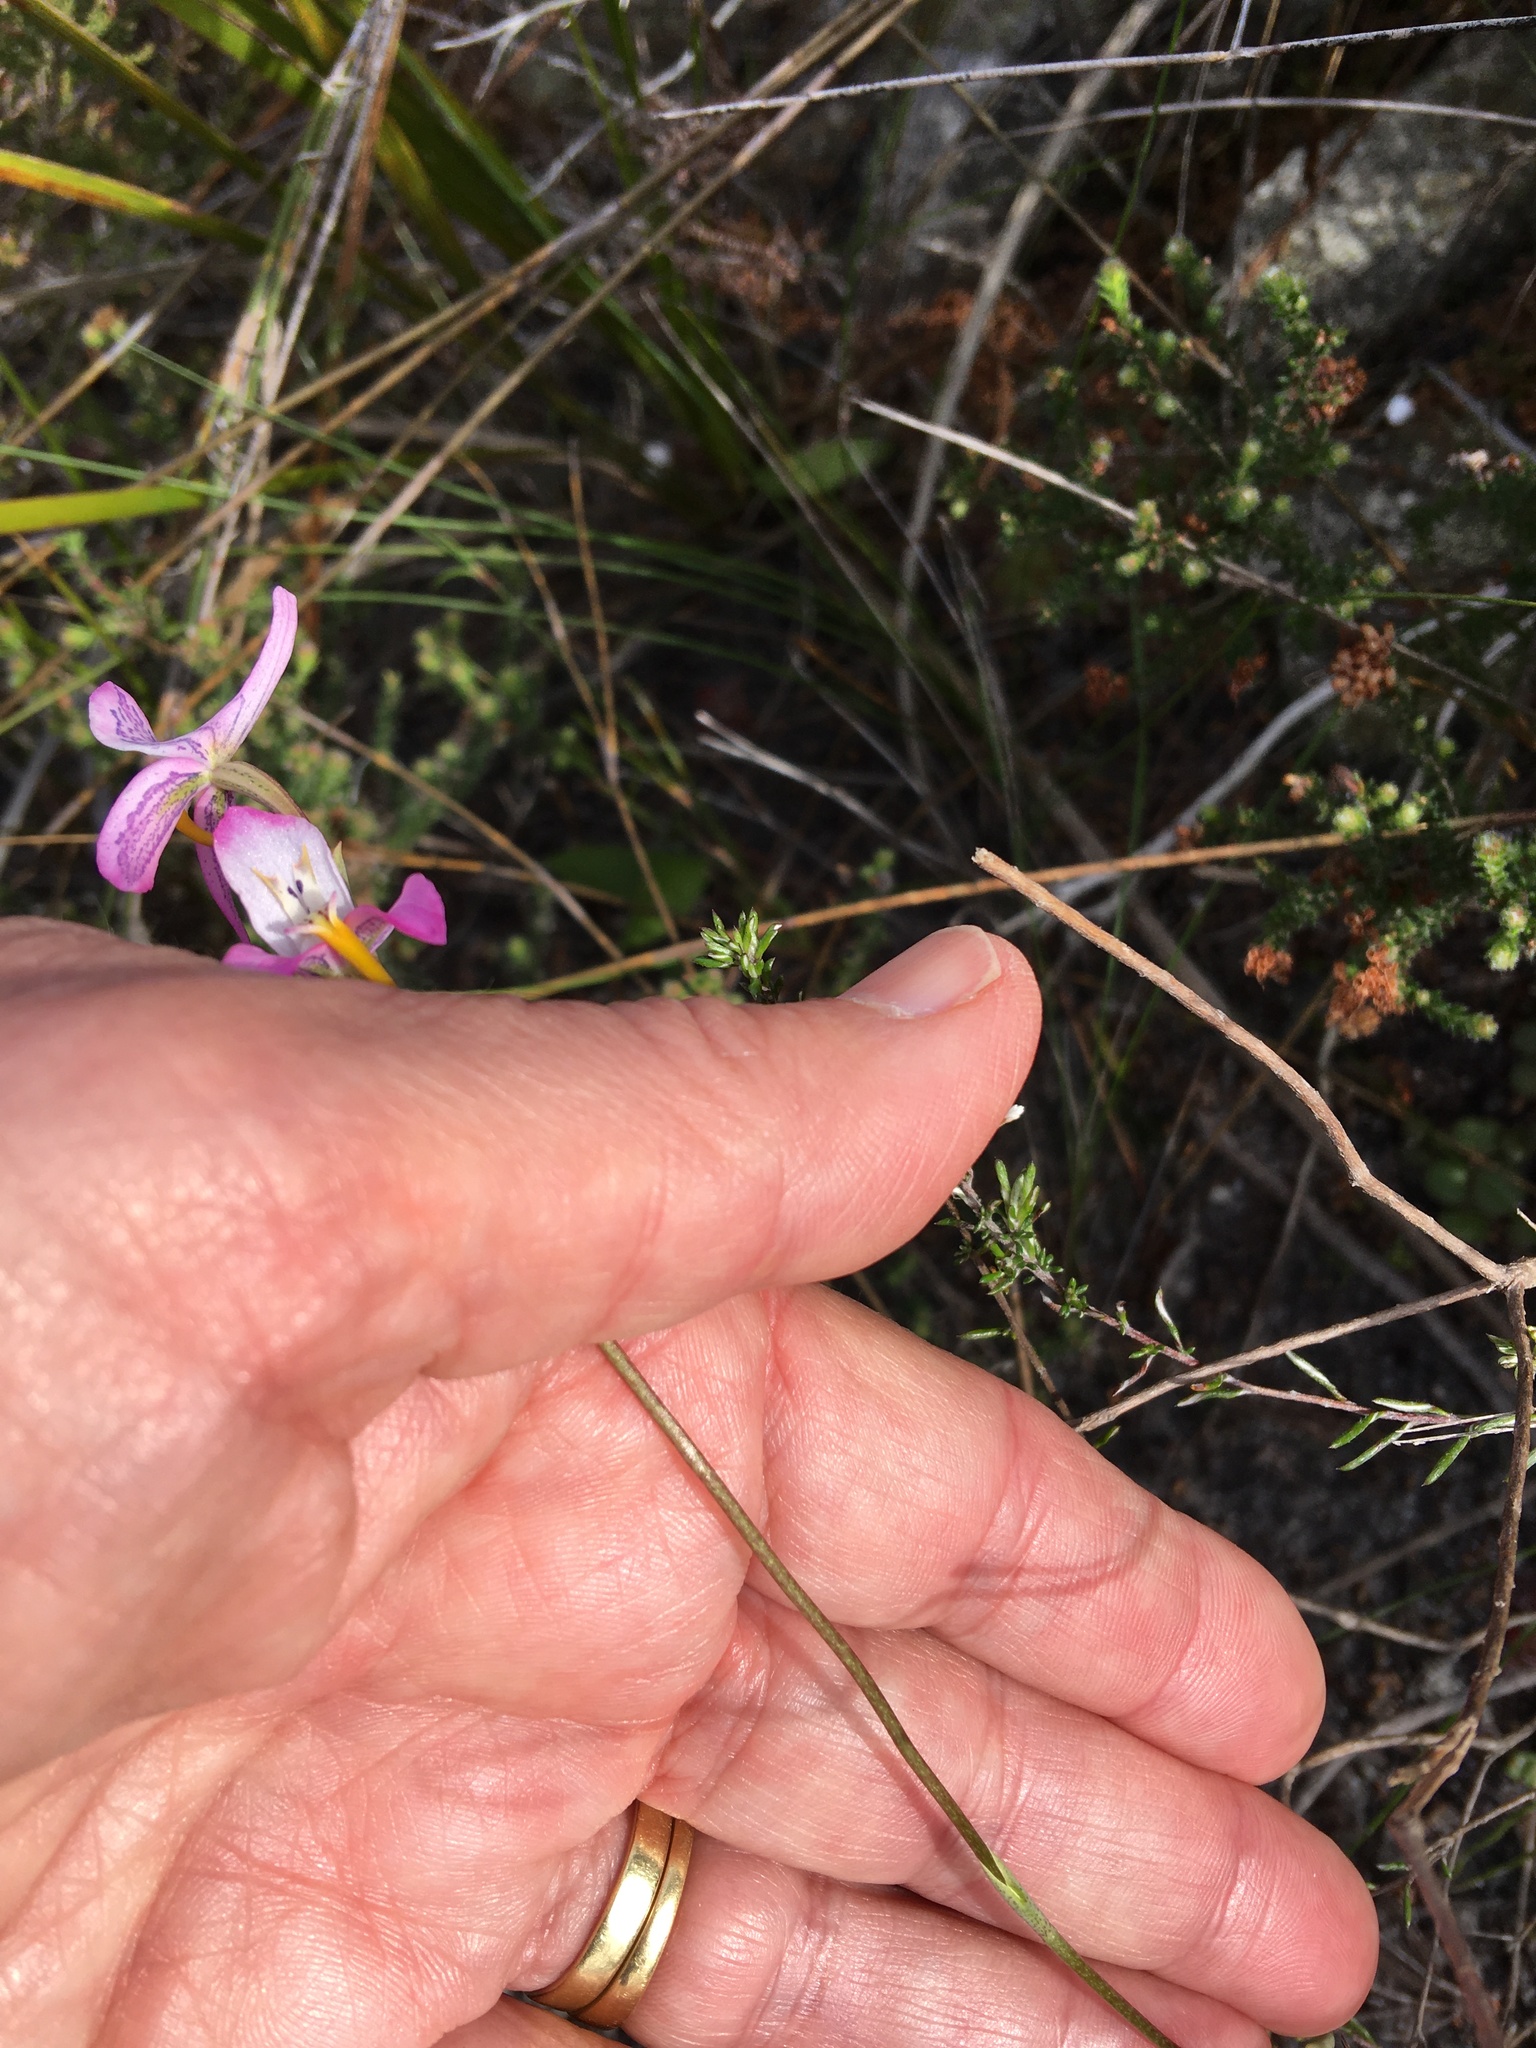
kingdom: Plantae
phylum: Tracheophyta
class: Liliopsida
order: Asparagales
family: Orchidaceae
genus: Disa
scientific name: Disa bifida
